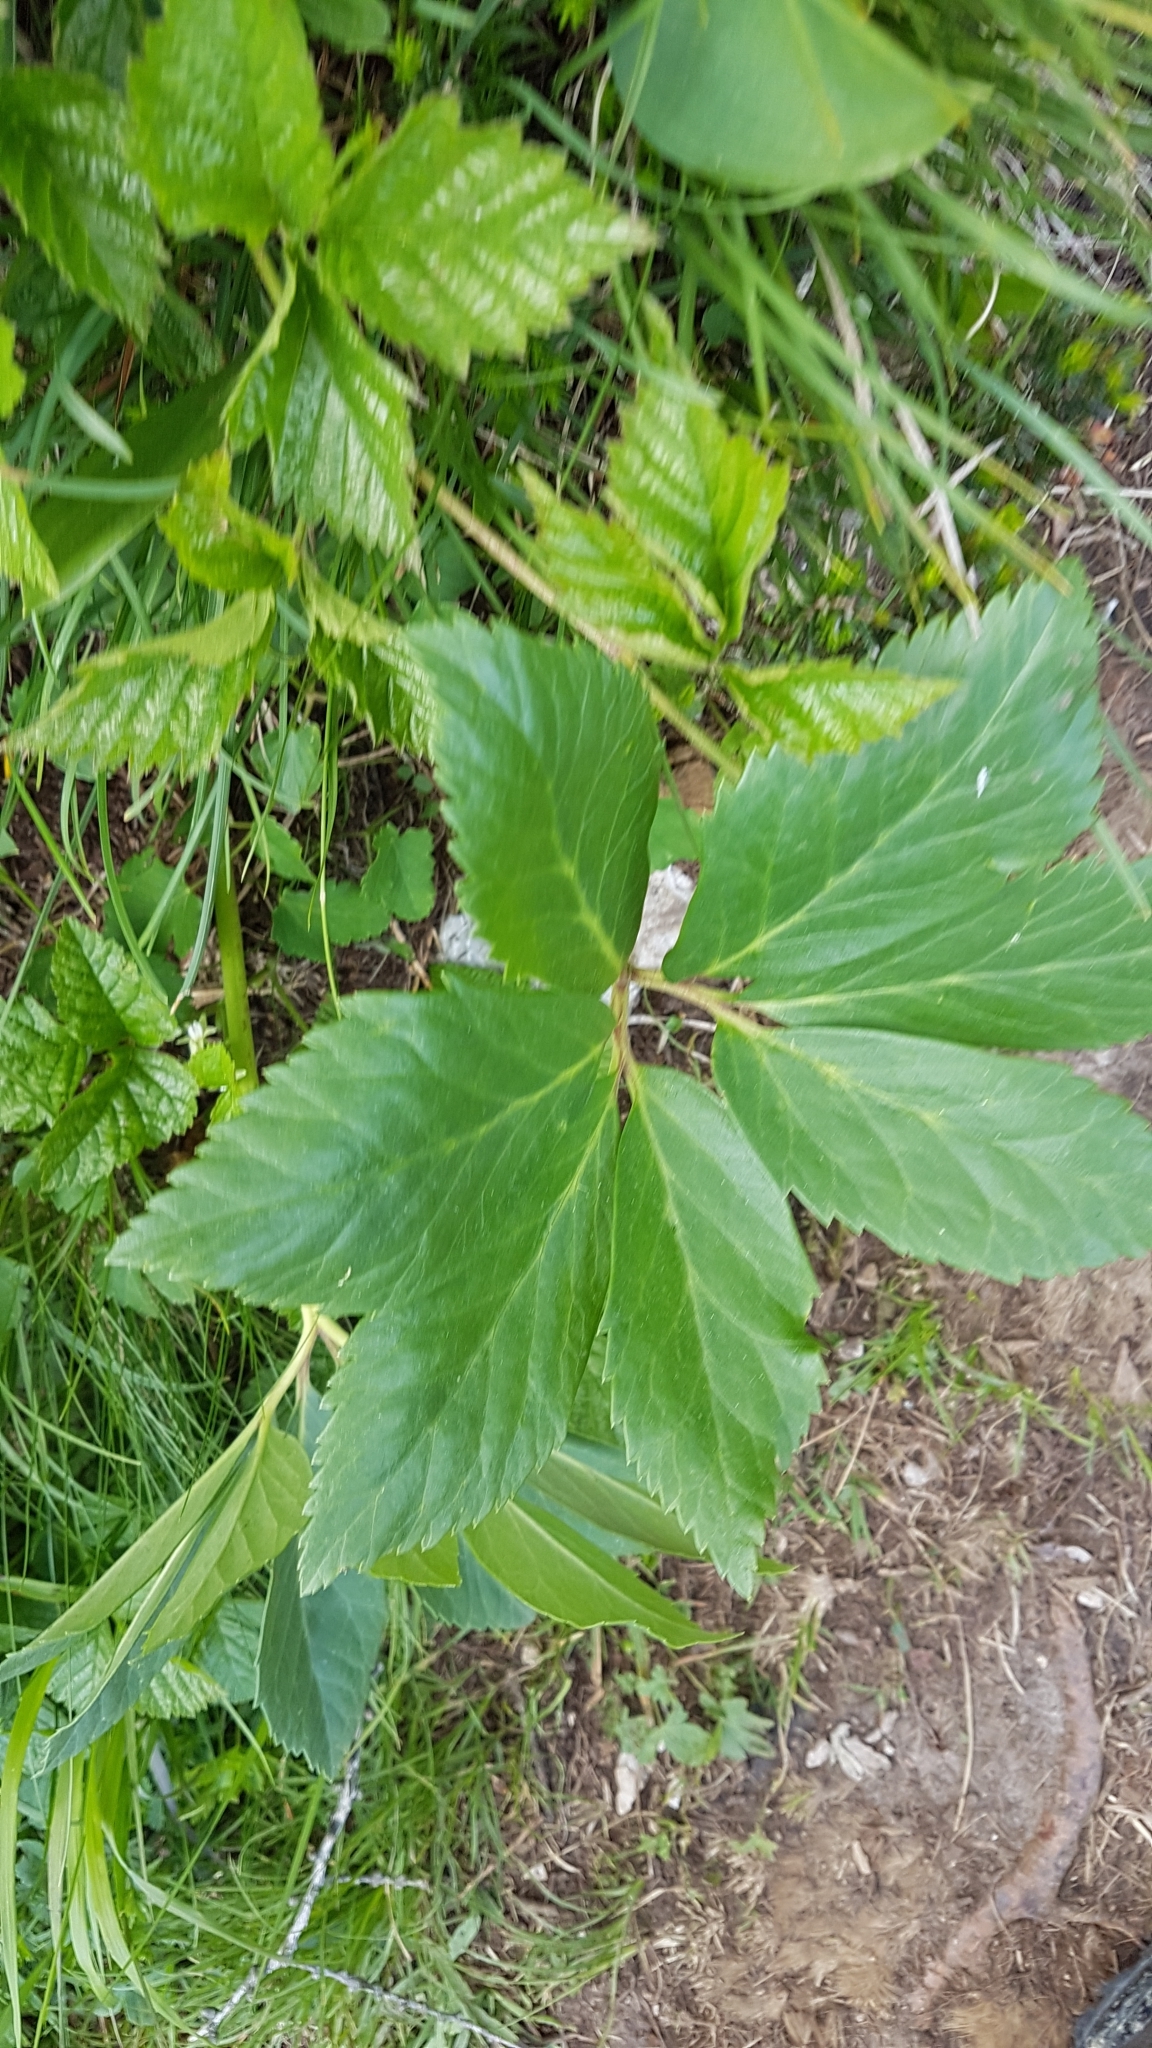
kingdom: Plantae
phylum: Tracheophyta
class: Magnoliopsida
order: Ranunculales
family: Ranunculaceae
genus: Helleborus
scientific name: Helleborus niger
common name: Black hellebore
